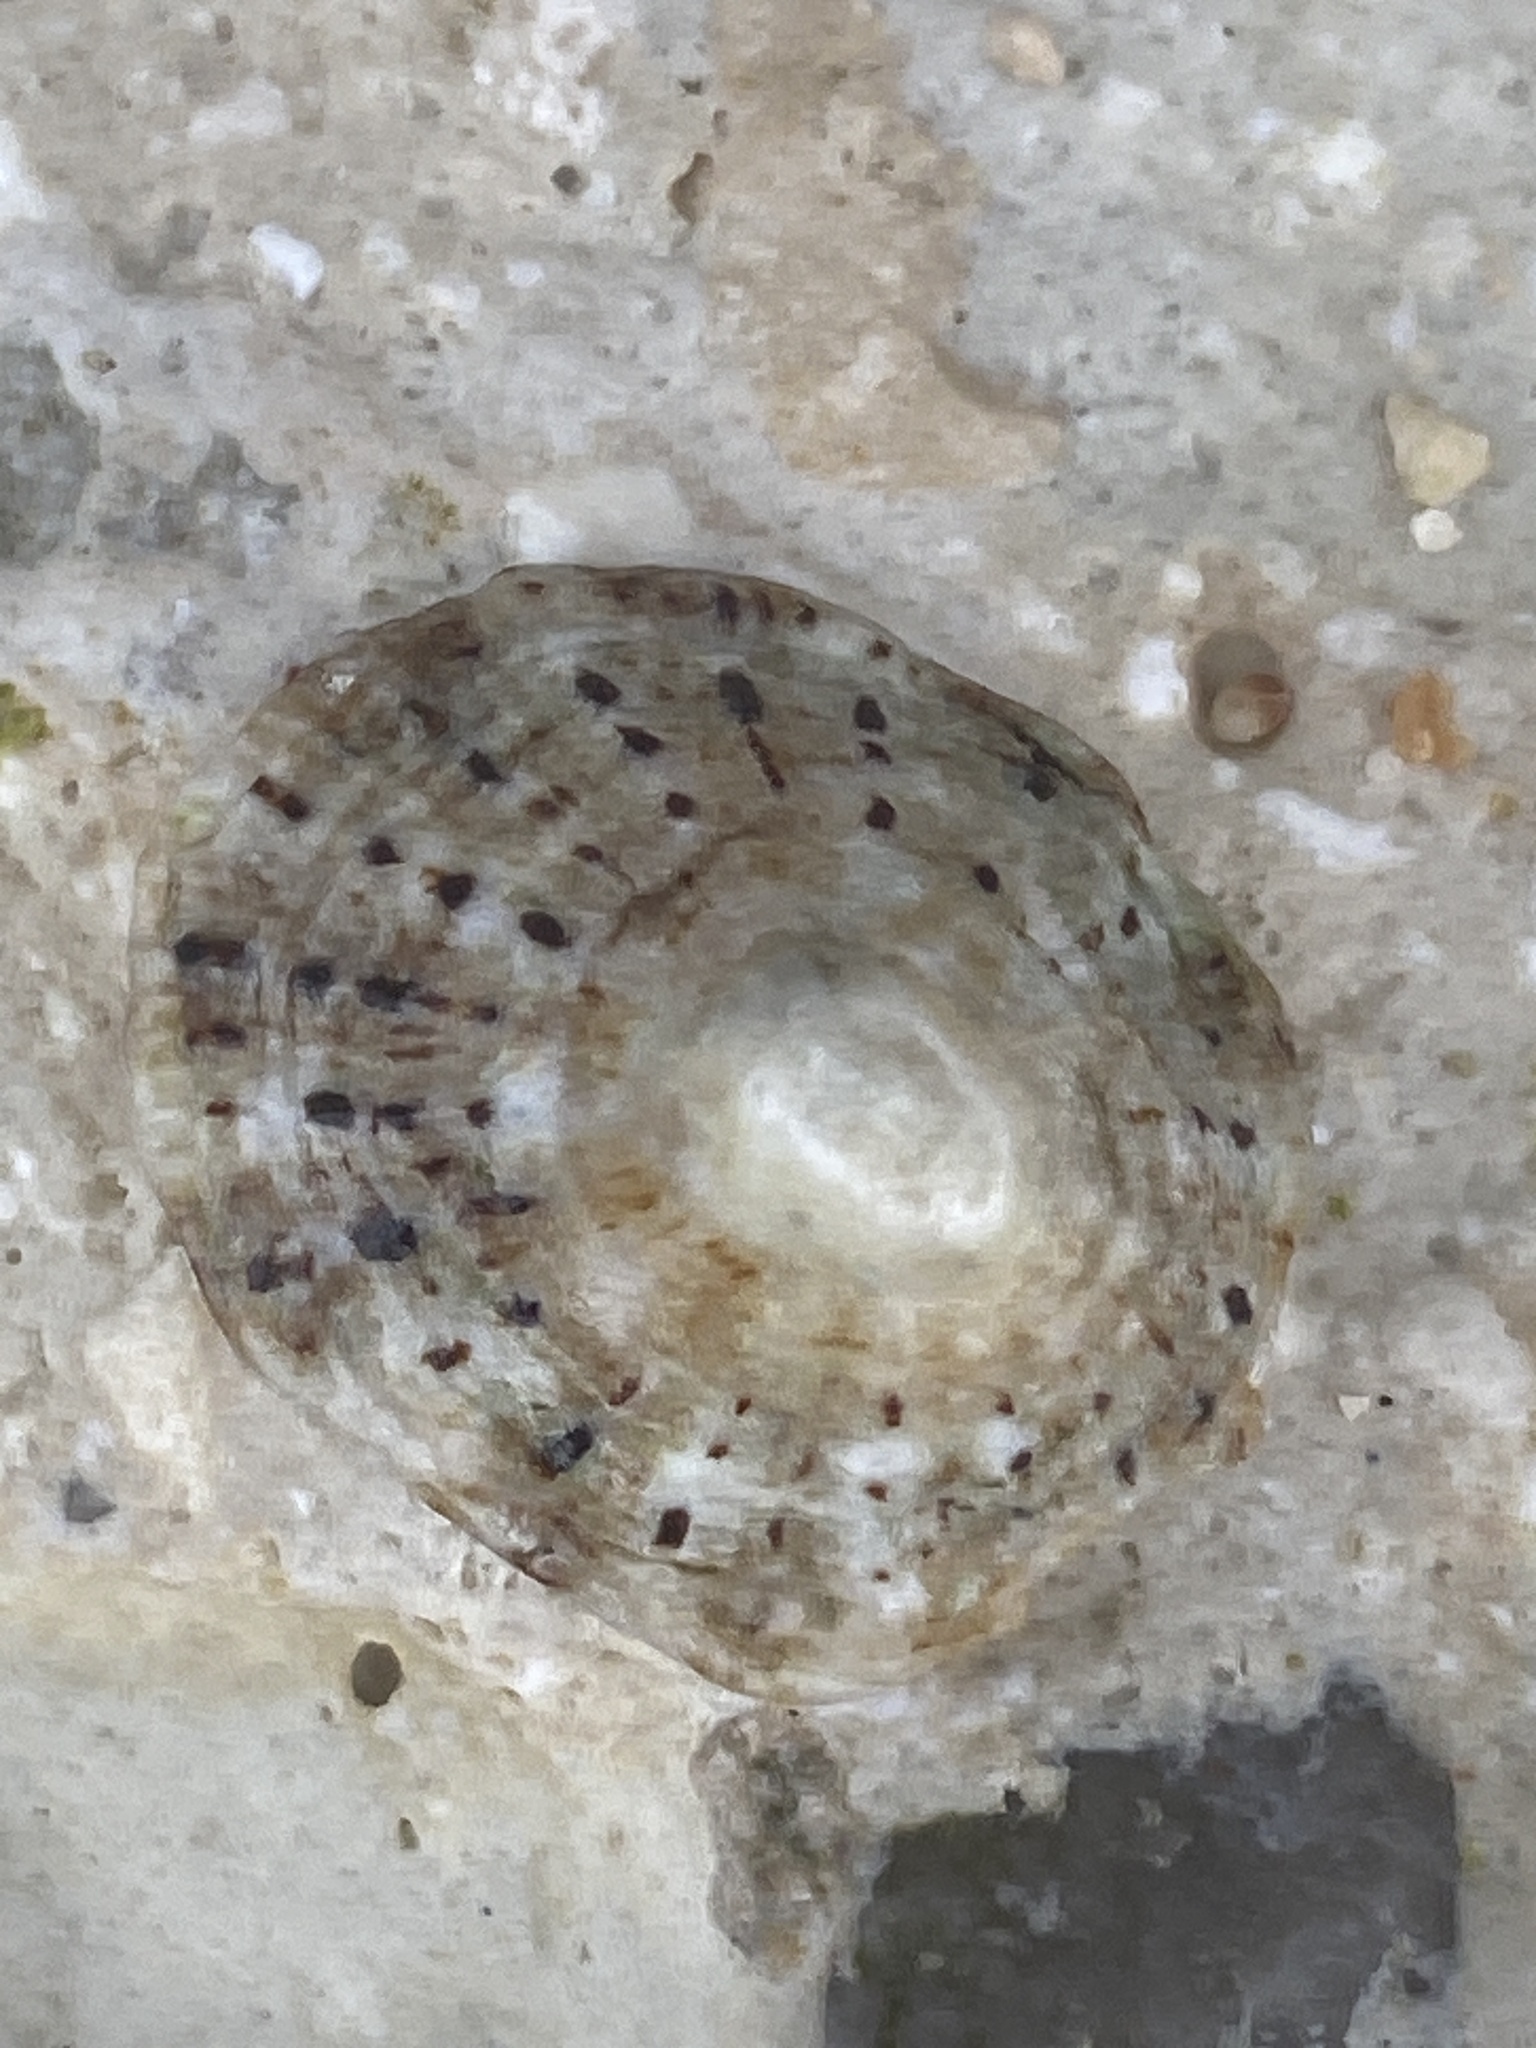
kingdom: Animalia
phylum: Mollusca
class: Gastropoda
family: Patellidae
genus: Patella
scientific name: Patella rustica
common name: Lusitanian limpet
